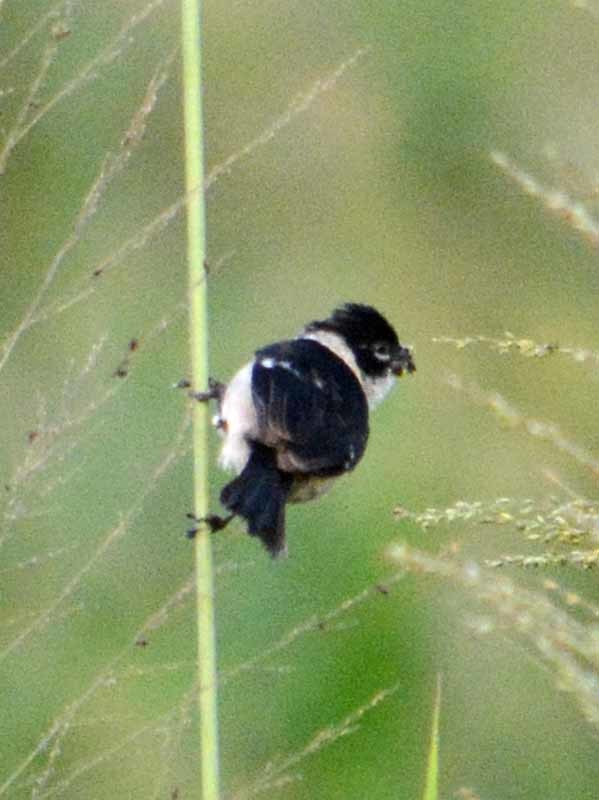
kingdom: Animalia
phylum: Chordata
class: Aves
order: Passeriformes
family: Thraupidae
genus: Sporophila
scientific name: Sporophila morelleti
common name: Morelet's seedeater
